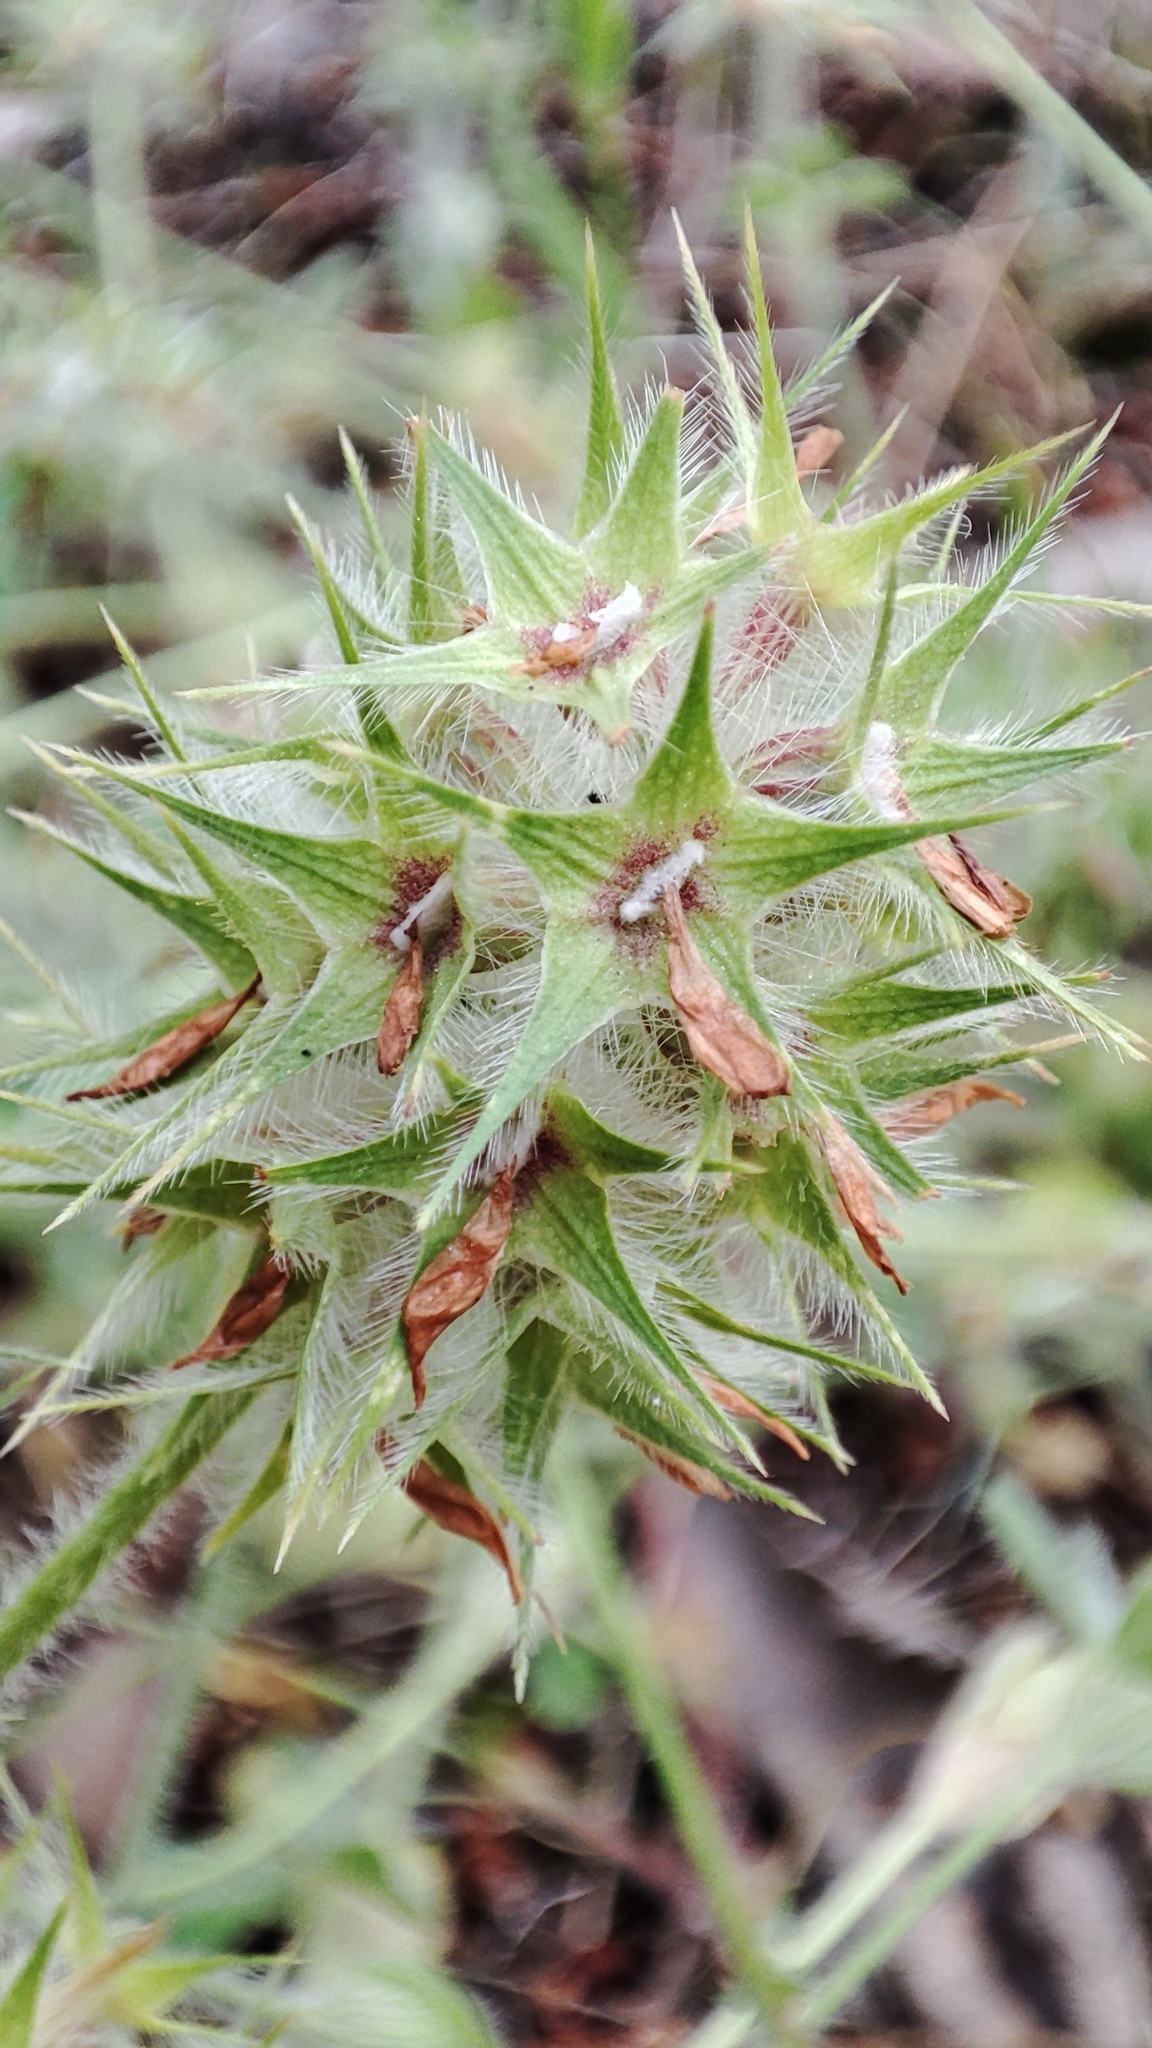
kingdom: Plantae
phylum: Tracheophyta
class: Magnoliopsida
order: Fabales
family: Fabaceae
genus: Trifolium
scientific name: Trifolium stellatum
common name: Starry clover
